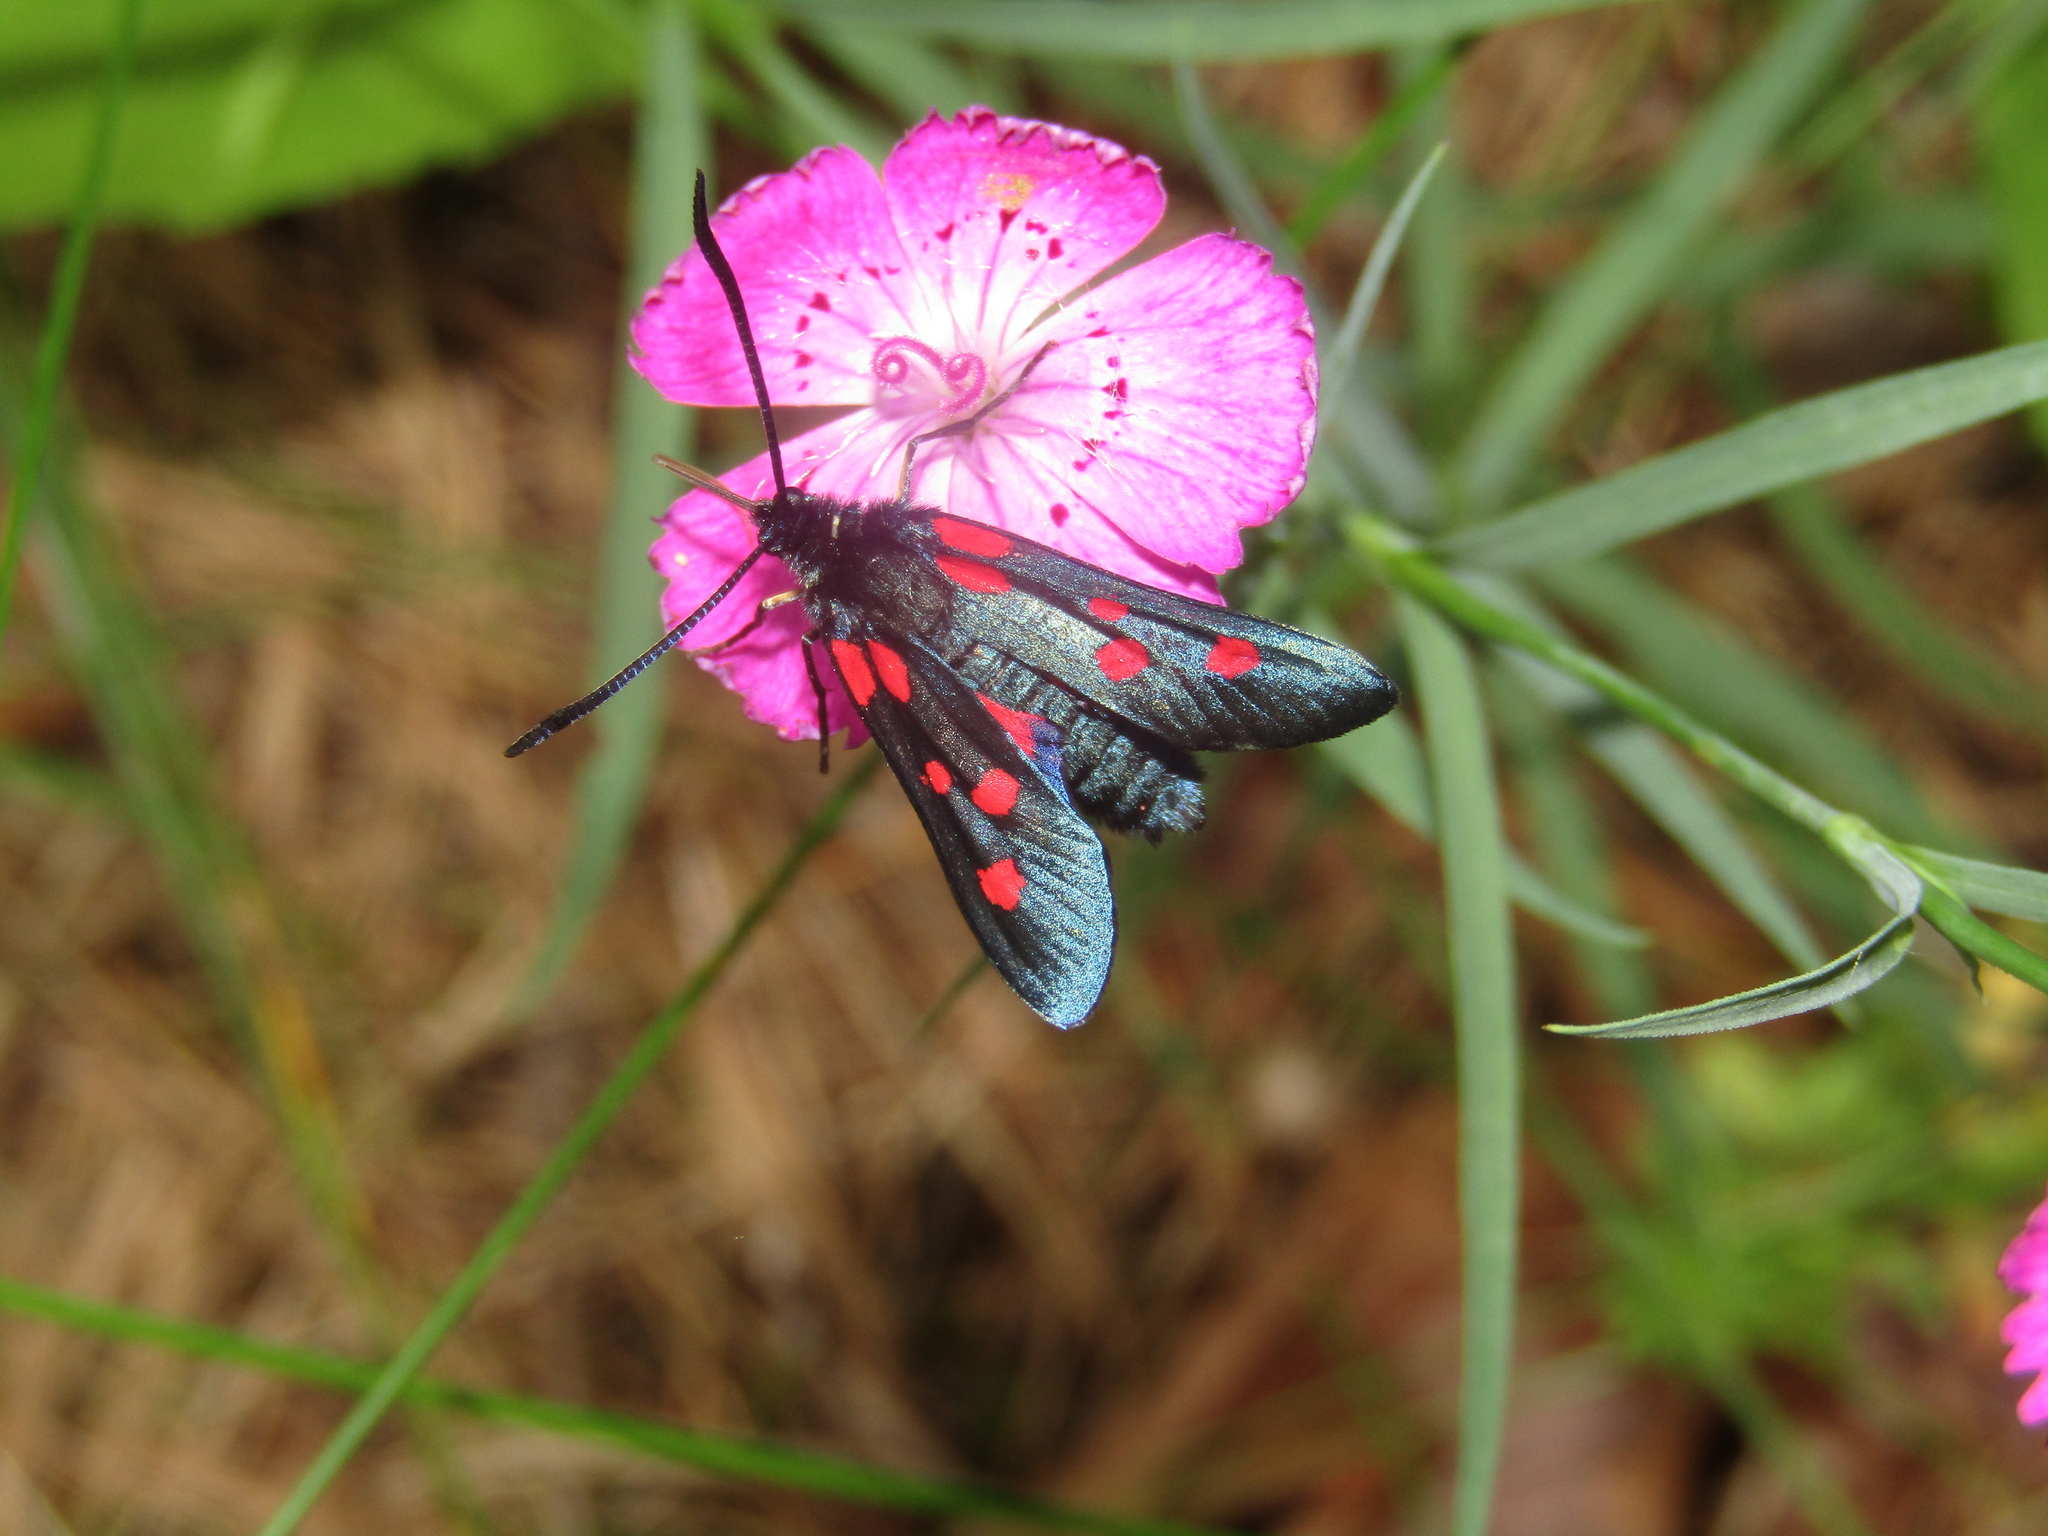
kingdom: Animalia
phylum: Arthropoda
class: Insecta
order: Lepidoptera
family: Zygaenidae
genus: Zygaena
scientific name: Zygaena lonicerae
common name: Narrow-bordered five-spot burnet
